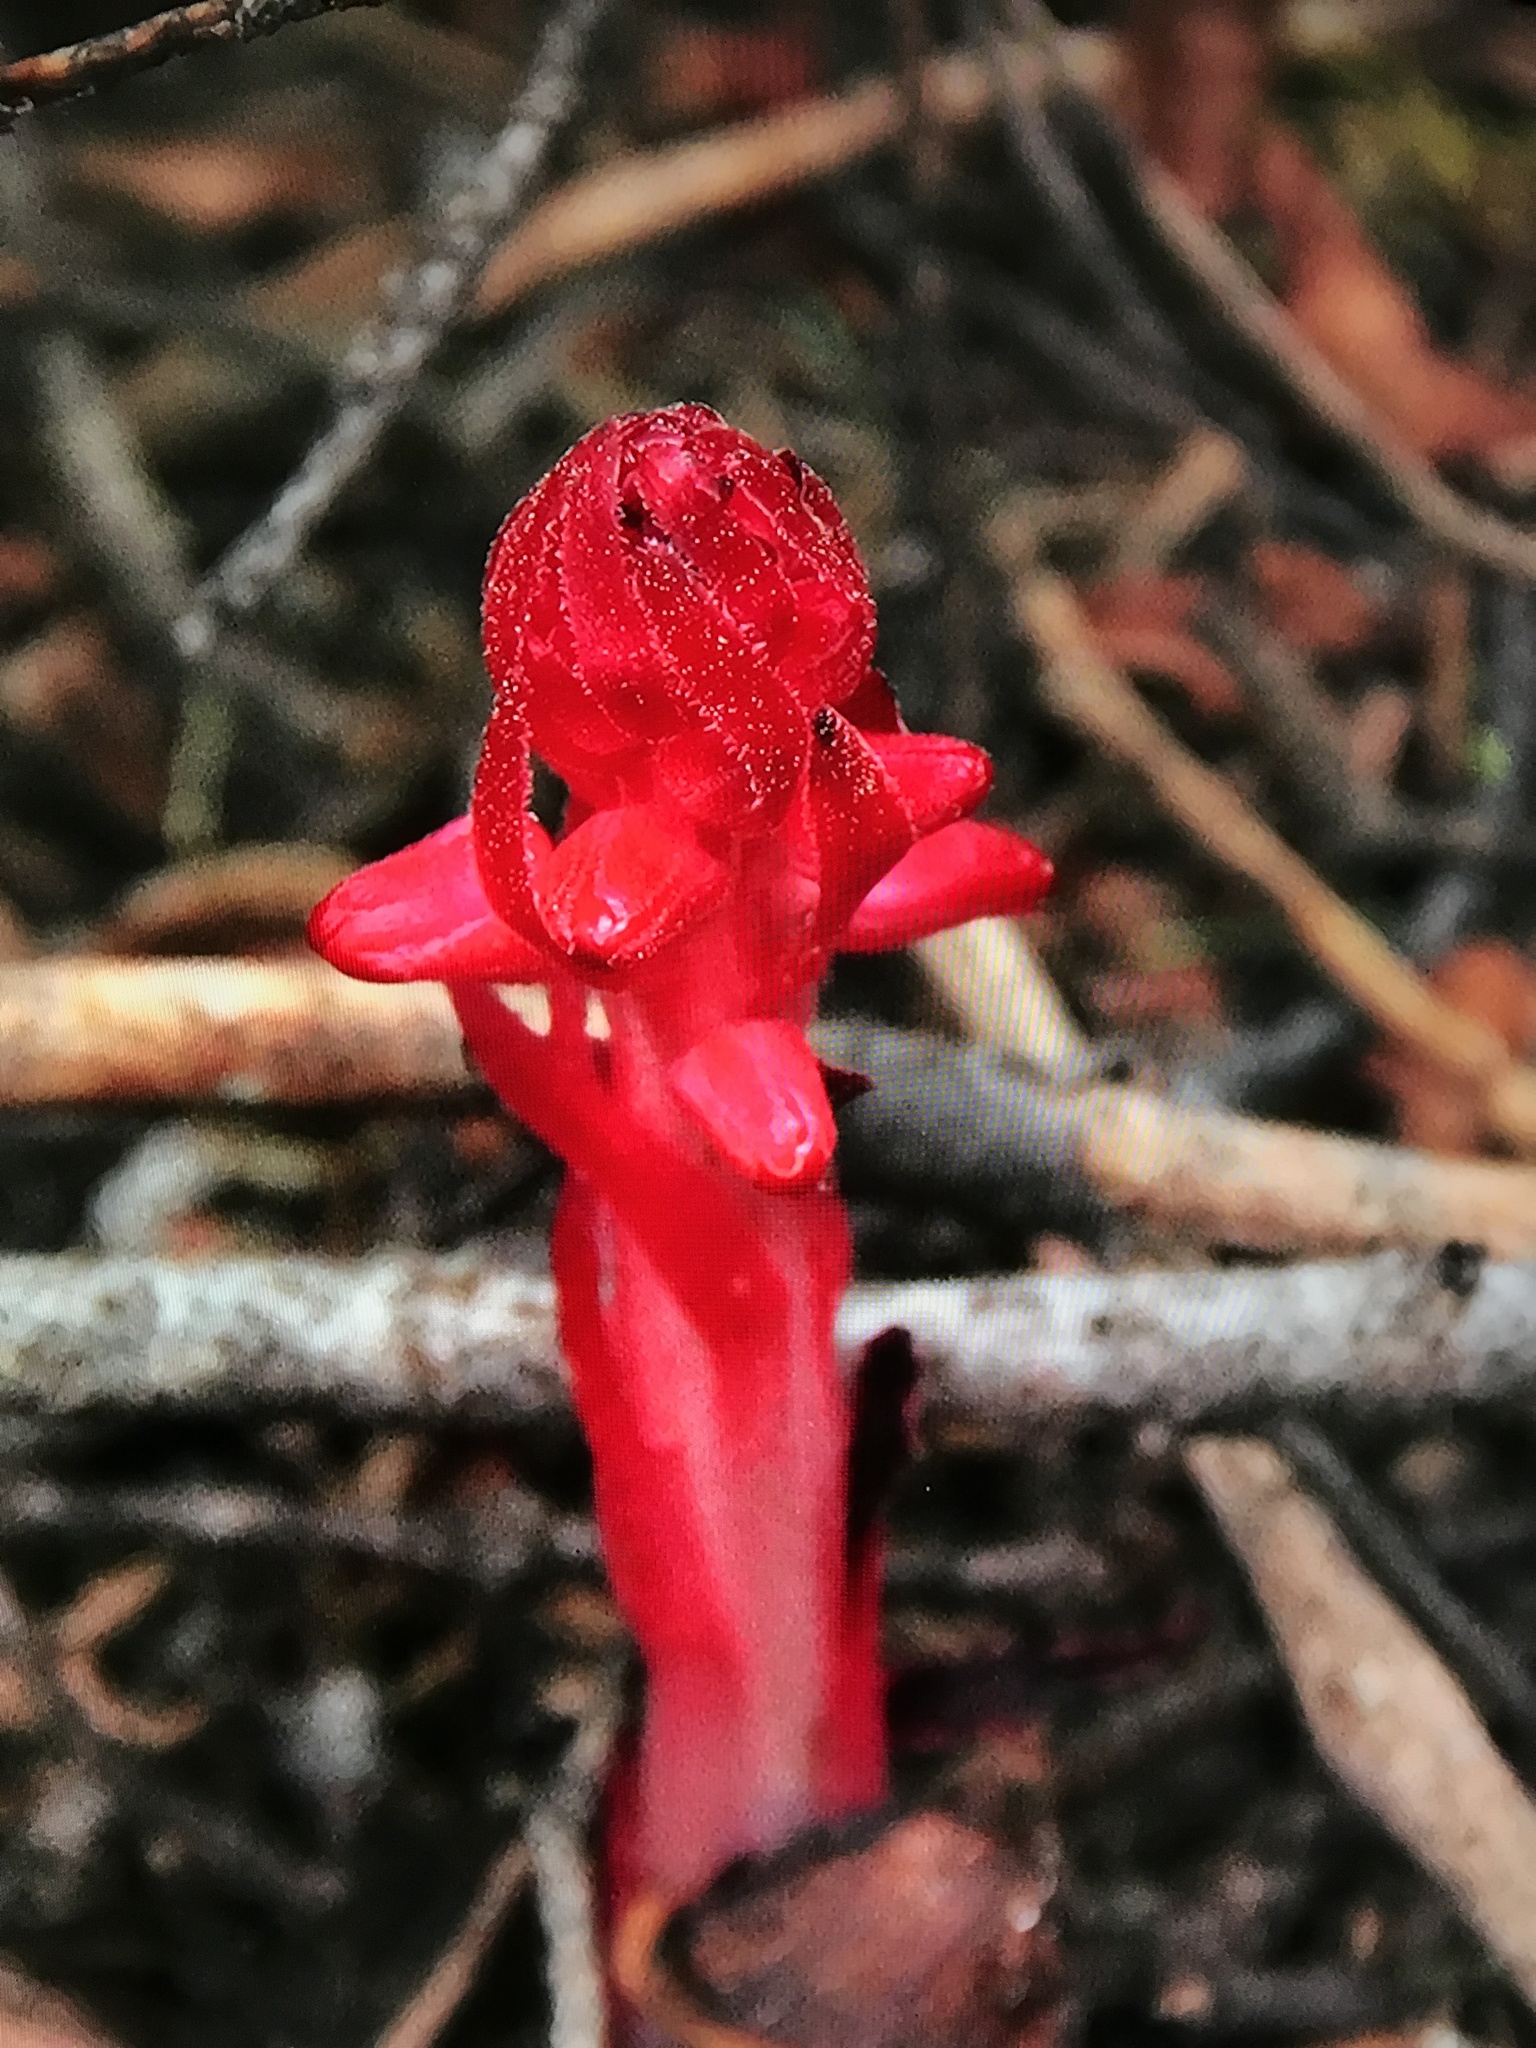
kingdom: Plantae
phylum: Tracheophyta
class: Magnoliopsida
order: Ericales
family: Ericaceae
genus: Sarcodes
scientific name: Sarcodes sanguinea
